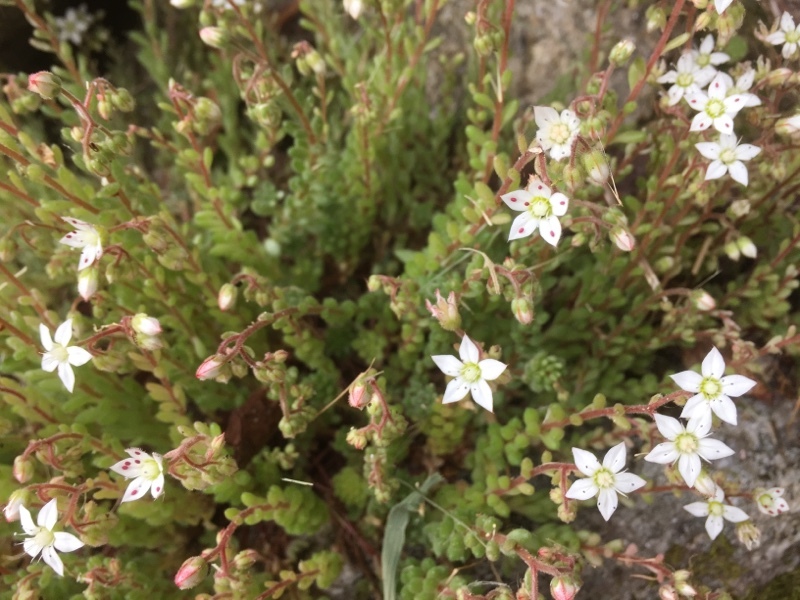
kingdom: Plantae
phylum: Tracheophyta
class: Magnoliopsida
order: Saxifragales
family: Crassulaceae
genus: Sedum
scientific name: Sedum hirsutum
